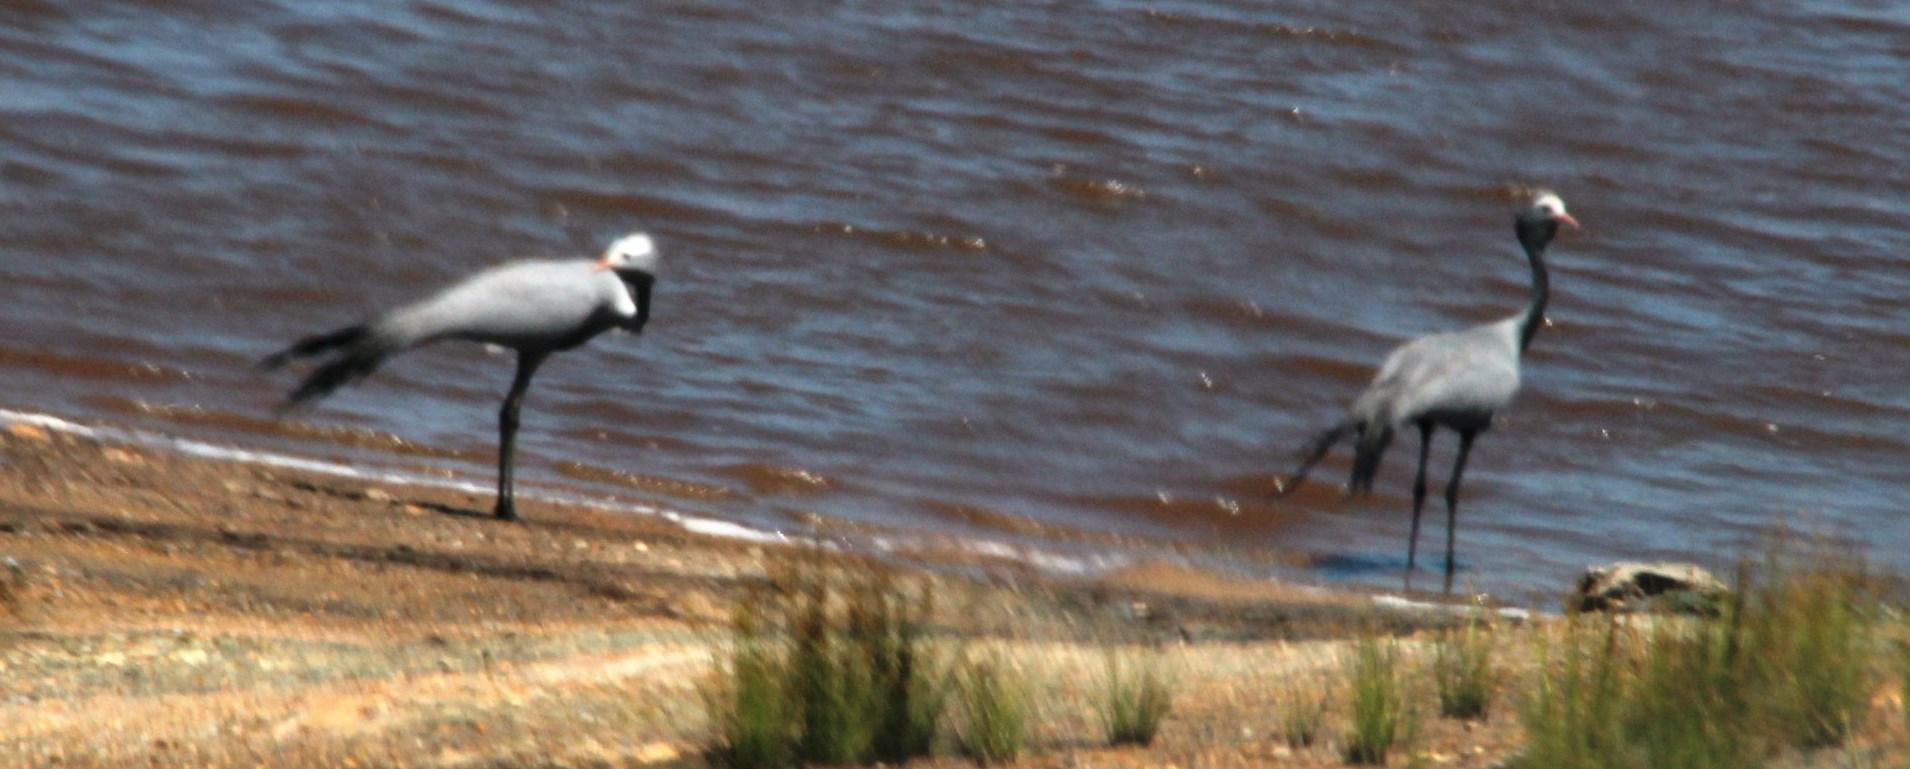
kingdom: Animalia
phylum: Chordata
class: Aves
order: Gruiformes
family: Gruidae
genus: Anthropoides
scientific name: Anthropoides paradiseus
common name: Blue crane
